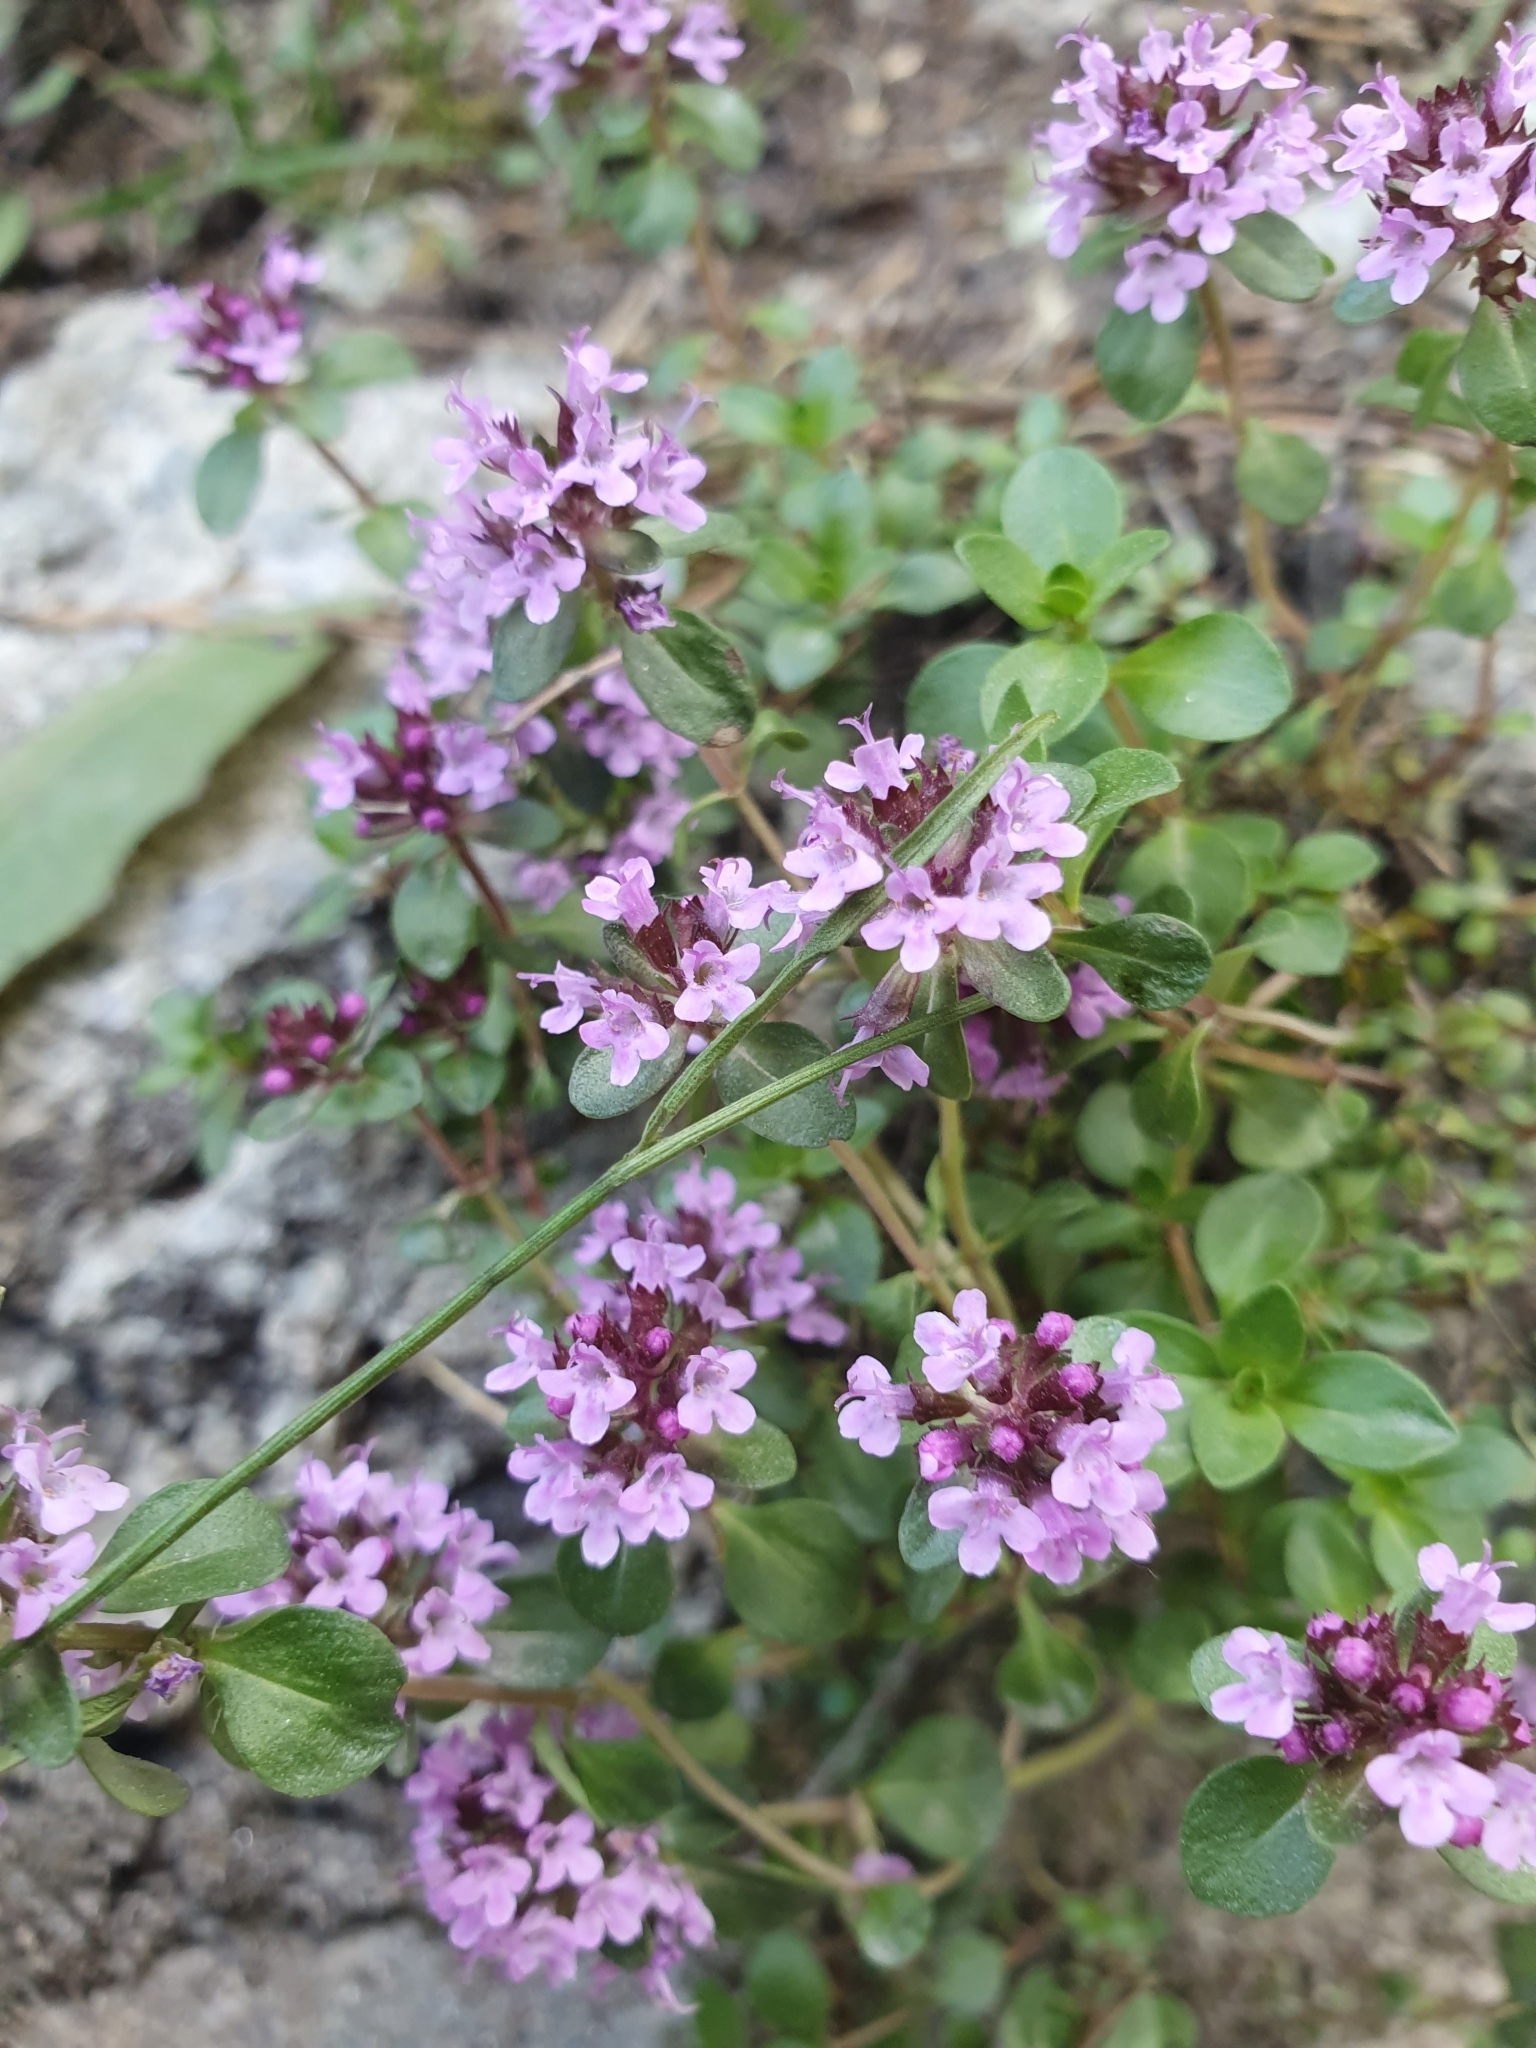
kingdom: Plantae
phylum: Tracheophyta
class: Magnoliopsida
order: Lamiales
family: Lamiaceae
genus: Thymus
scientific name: Thymus pulegioides
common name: Large thyme
